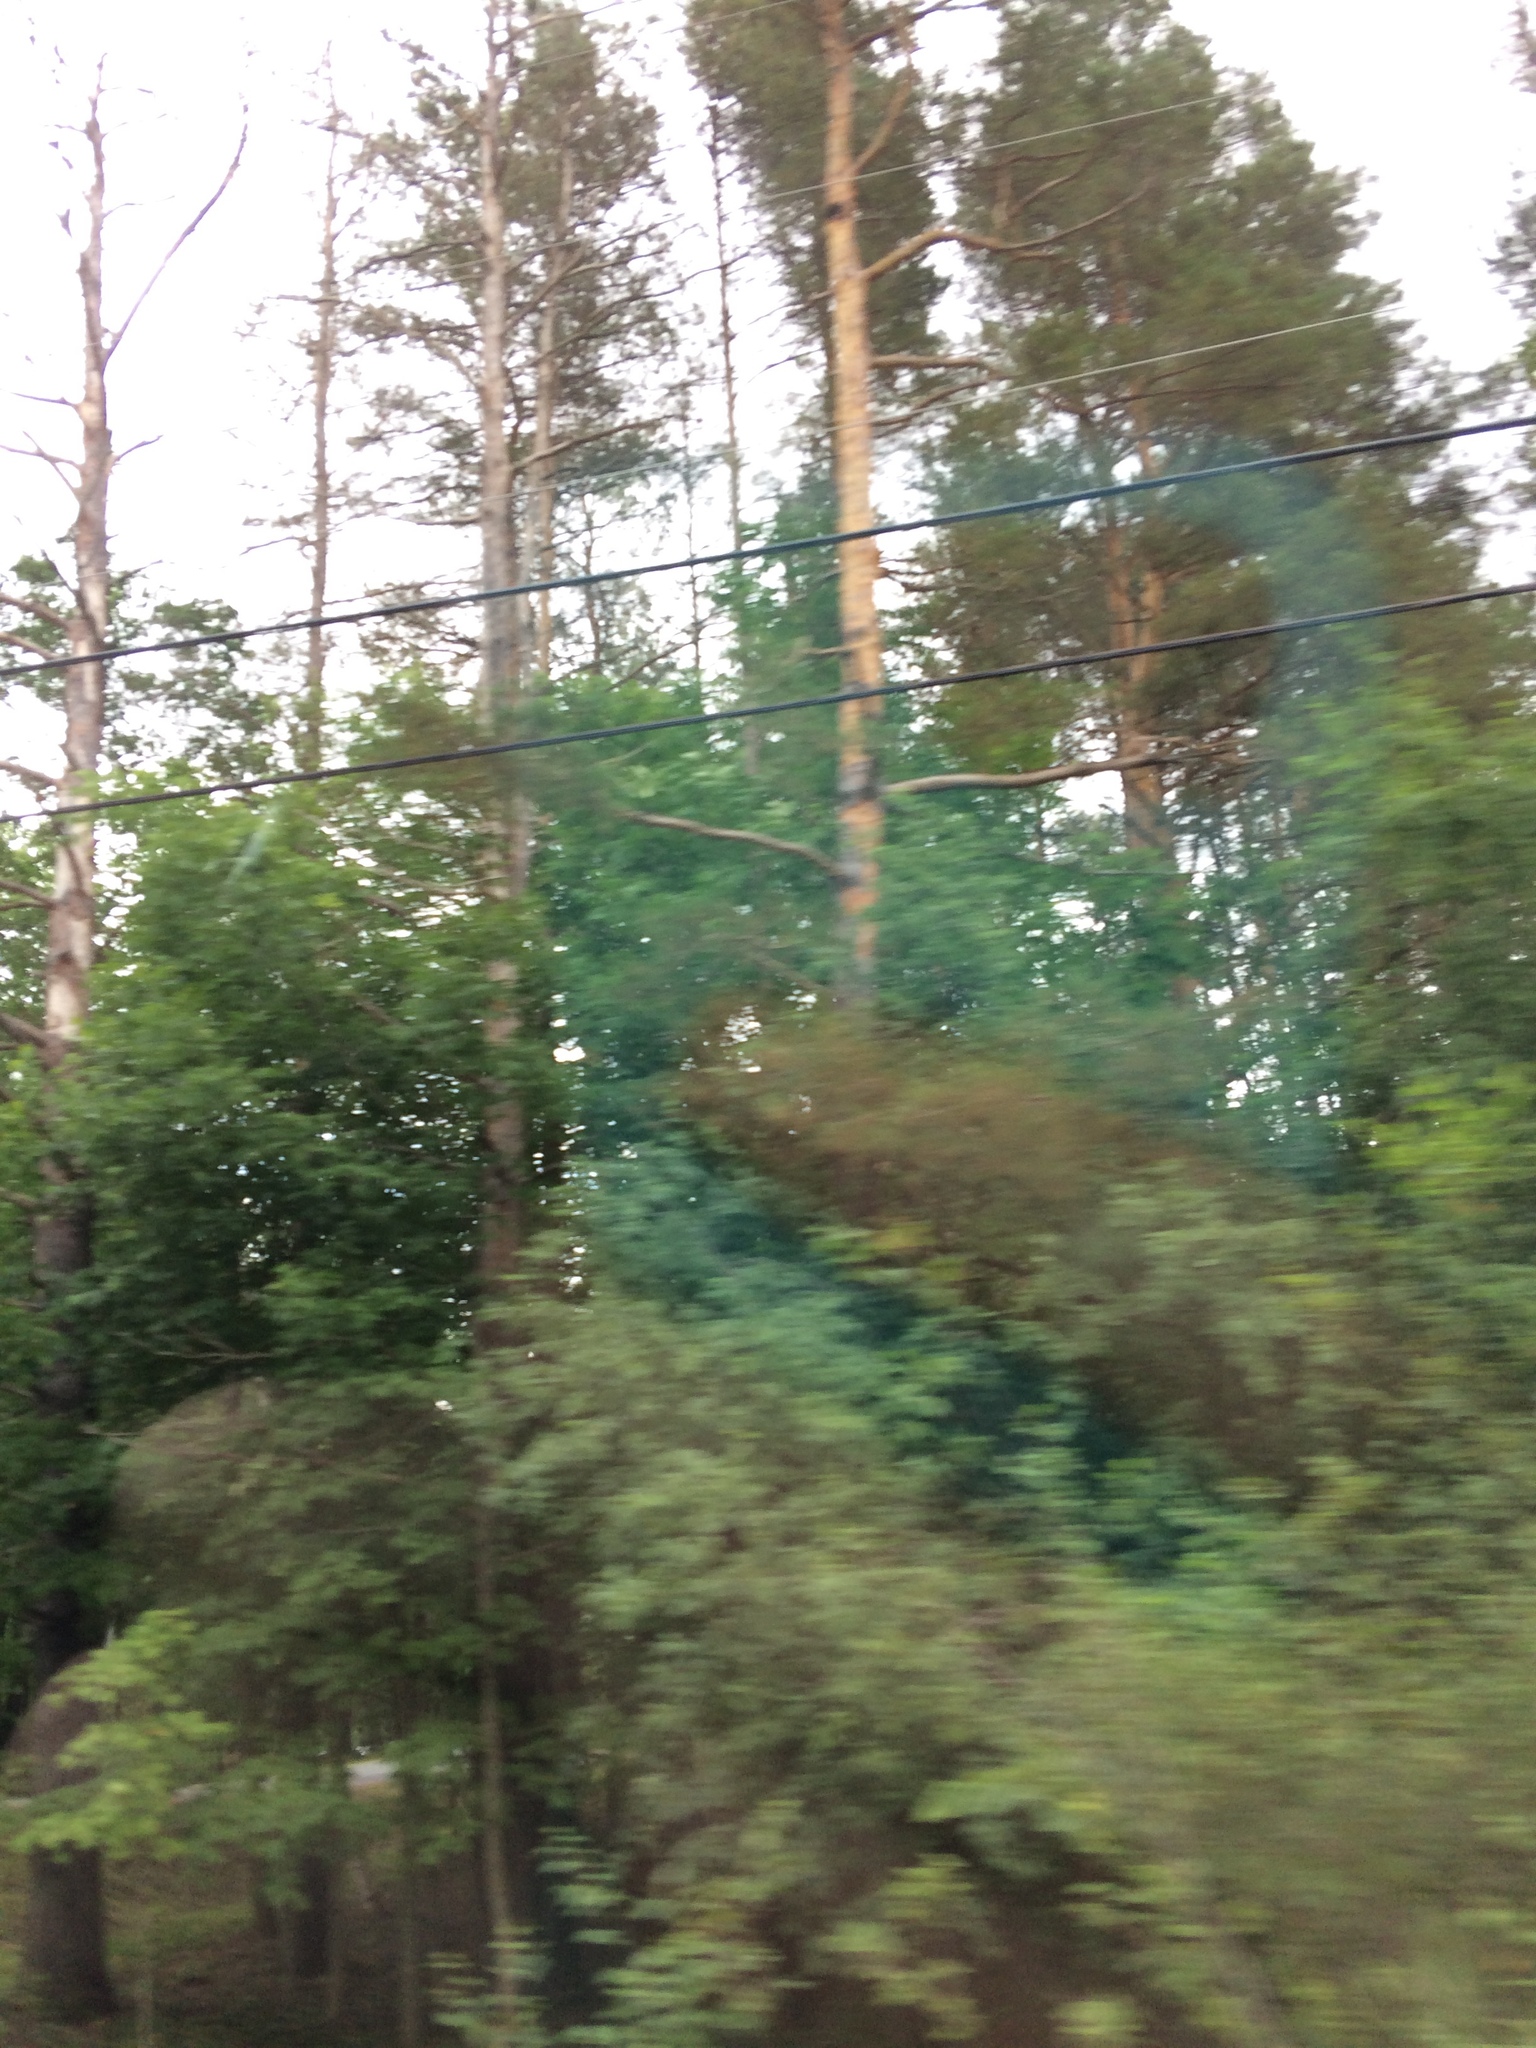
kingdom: Plantae
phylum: Tracheophyta
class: Pinopsida
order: Pinales
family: Pinaceae
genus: Pinus
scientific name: Pinus sylvestris
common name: Scots pine
